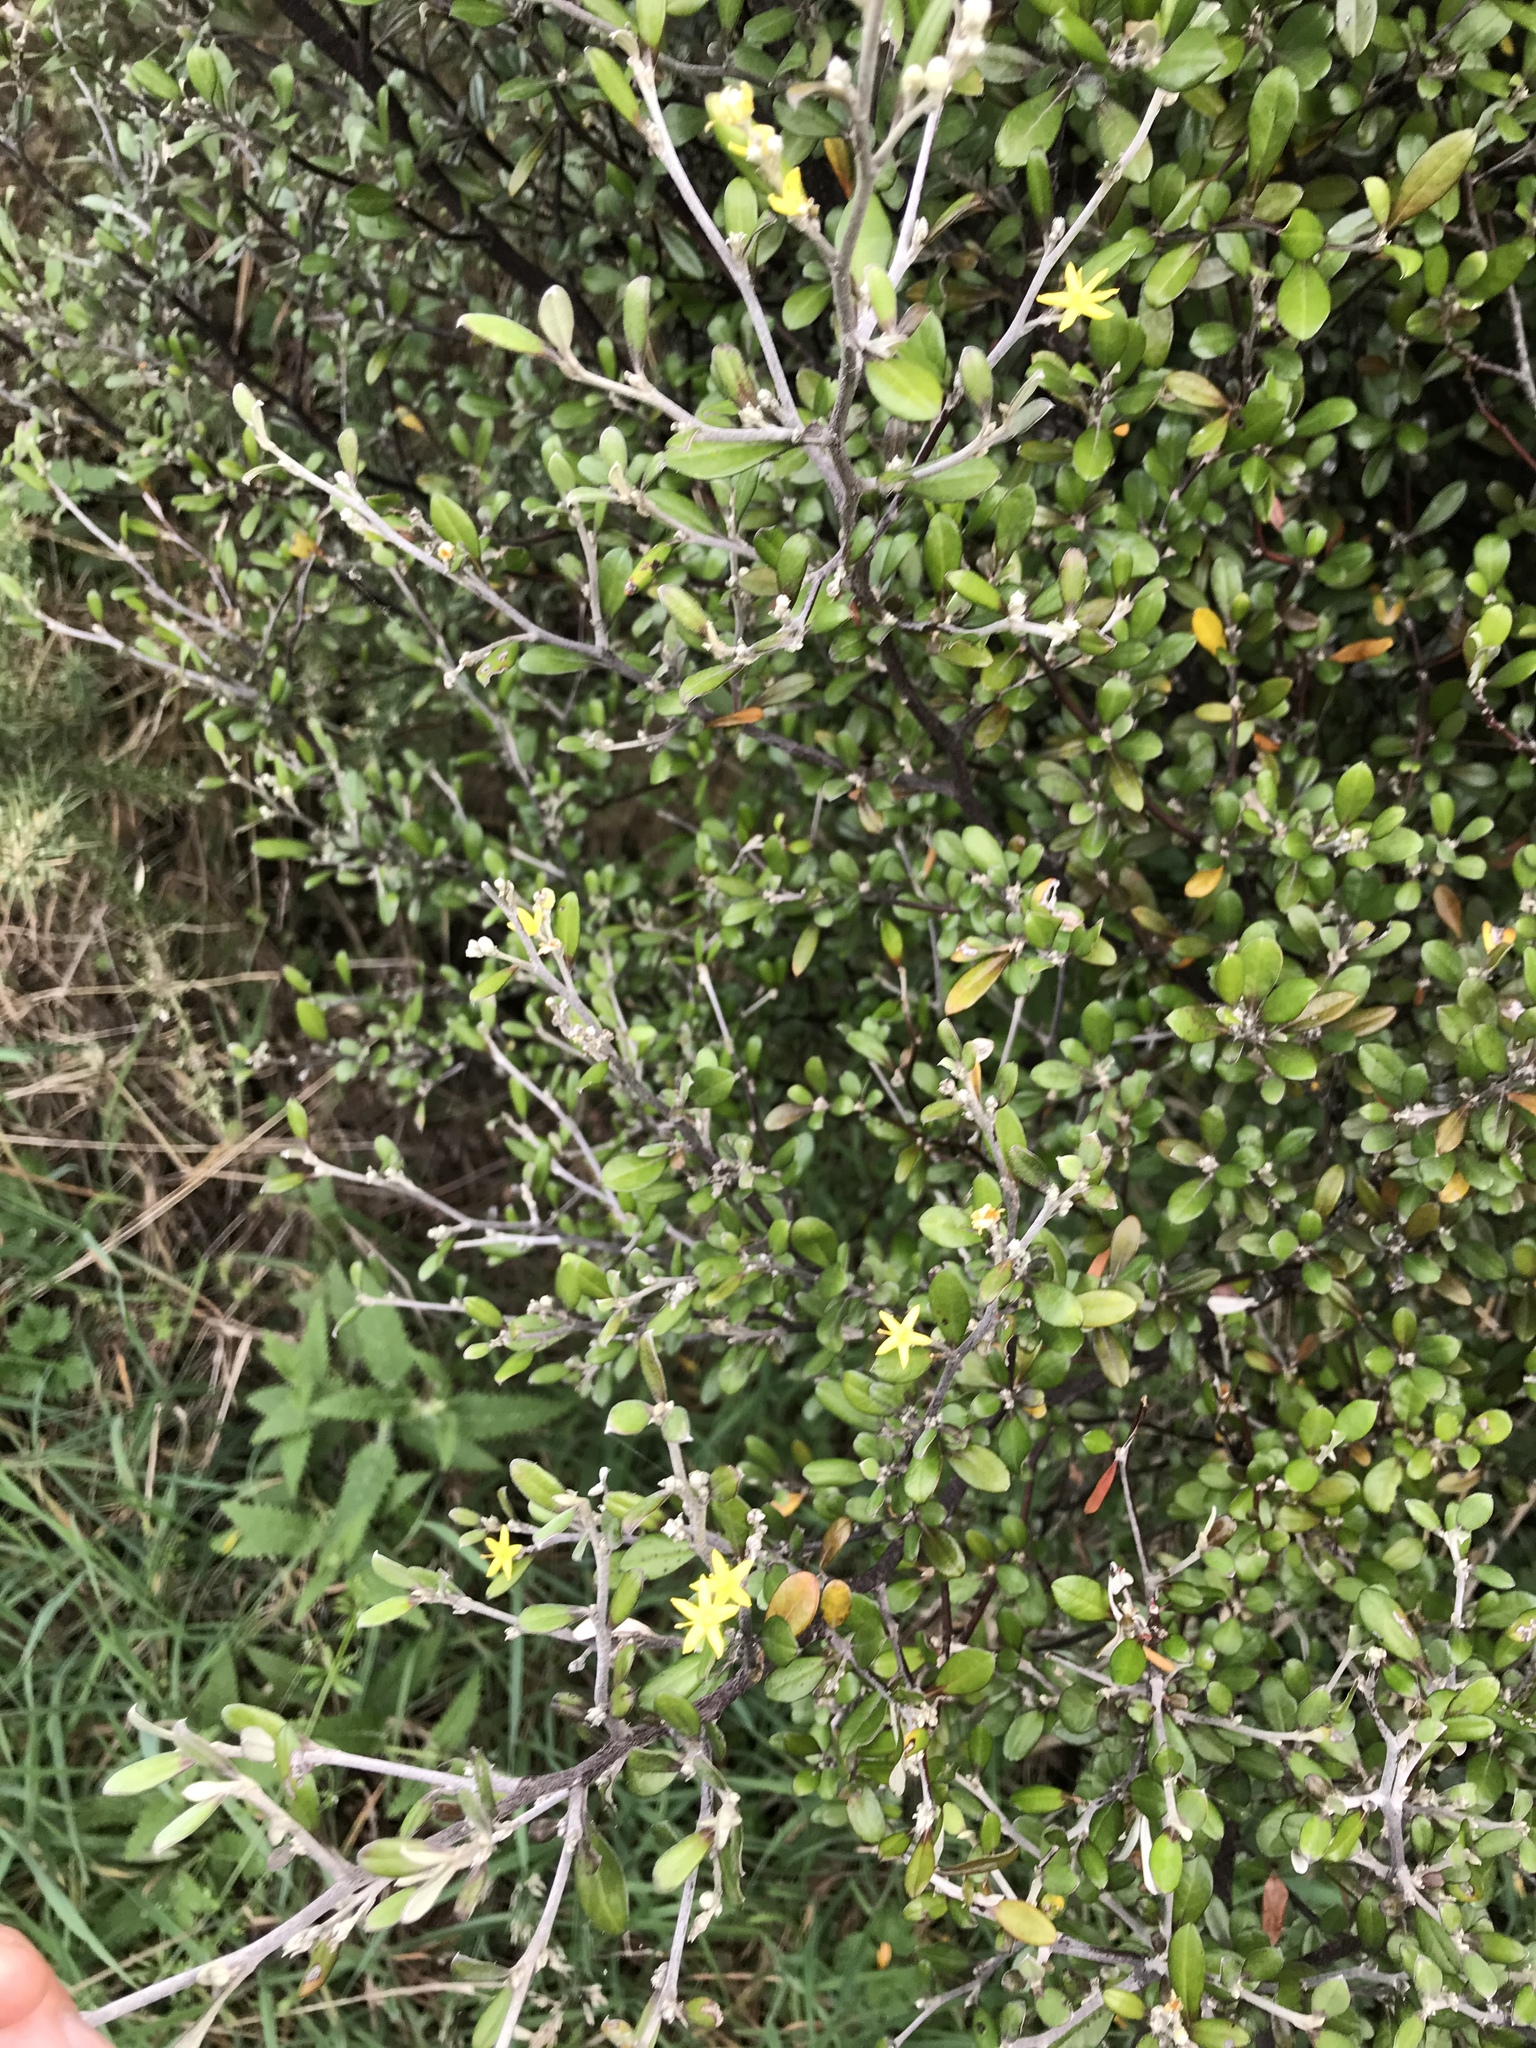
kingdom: Plantae
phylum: Tracheophyta
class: Magnoliopsida
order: Asterales
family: Argophyllaceae
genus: Corokia
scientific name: Corokia virgata
